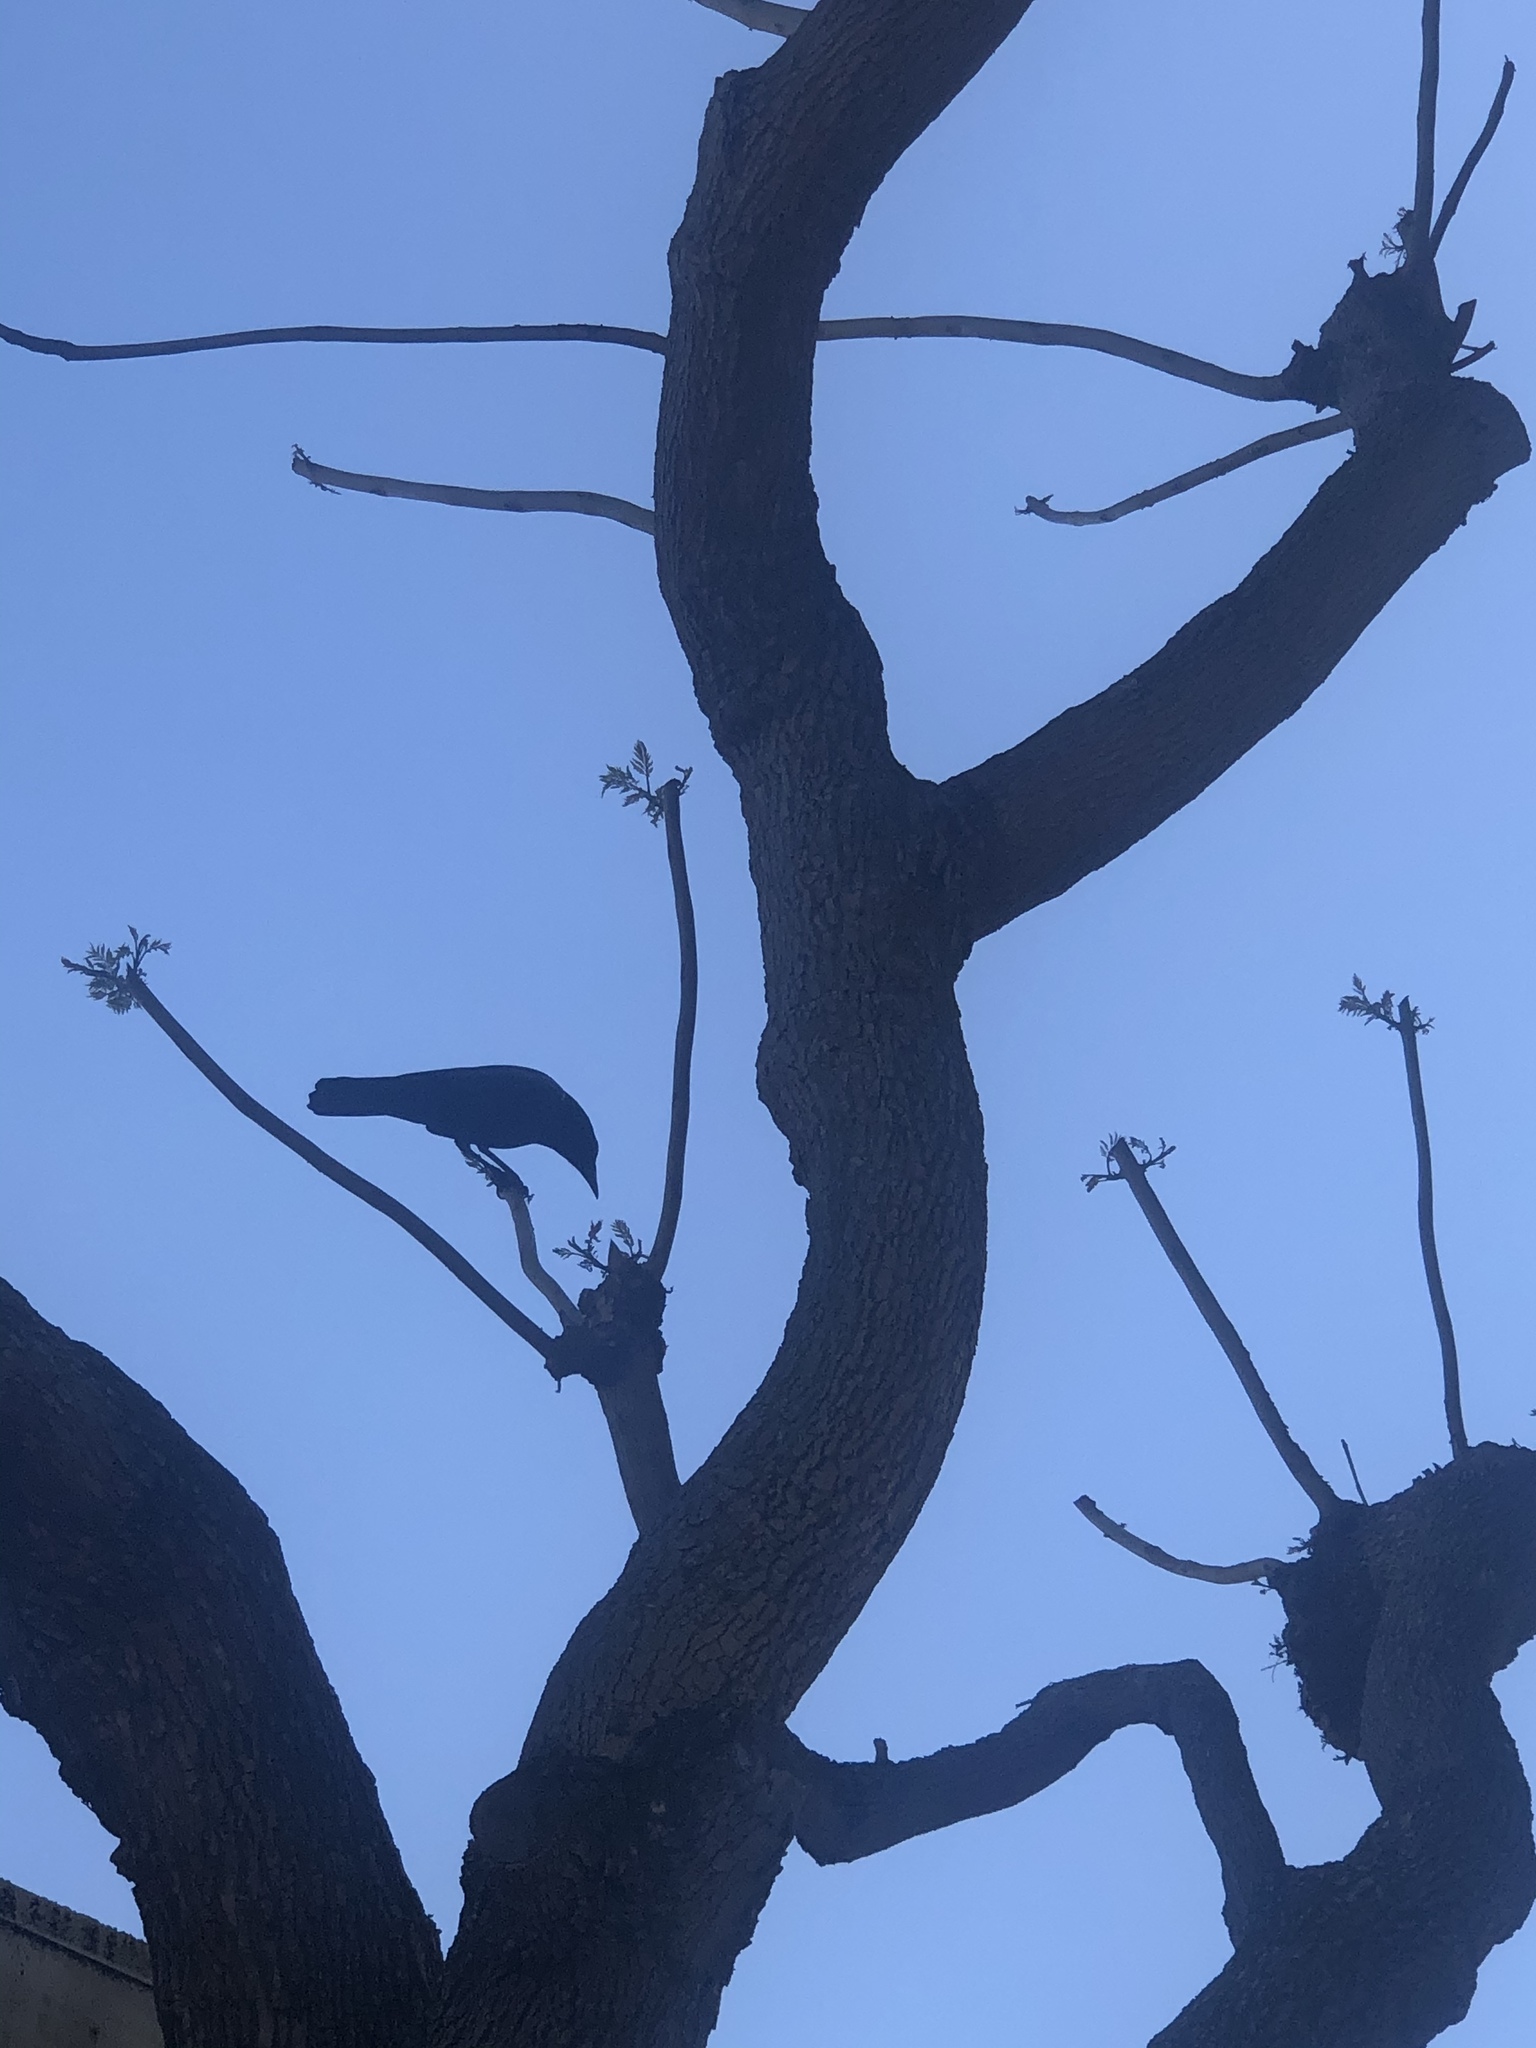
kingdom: Animalia
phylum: Chordata
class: Aves
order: Passeriformes
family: Corvidae
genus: Corvus
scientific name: Corvus brachyrhynchos
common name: American crow
